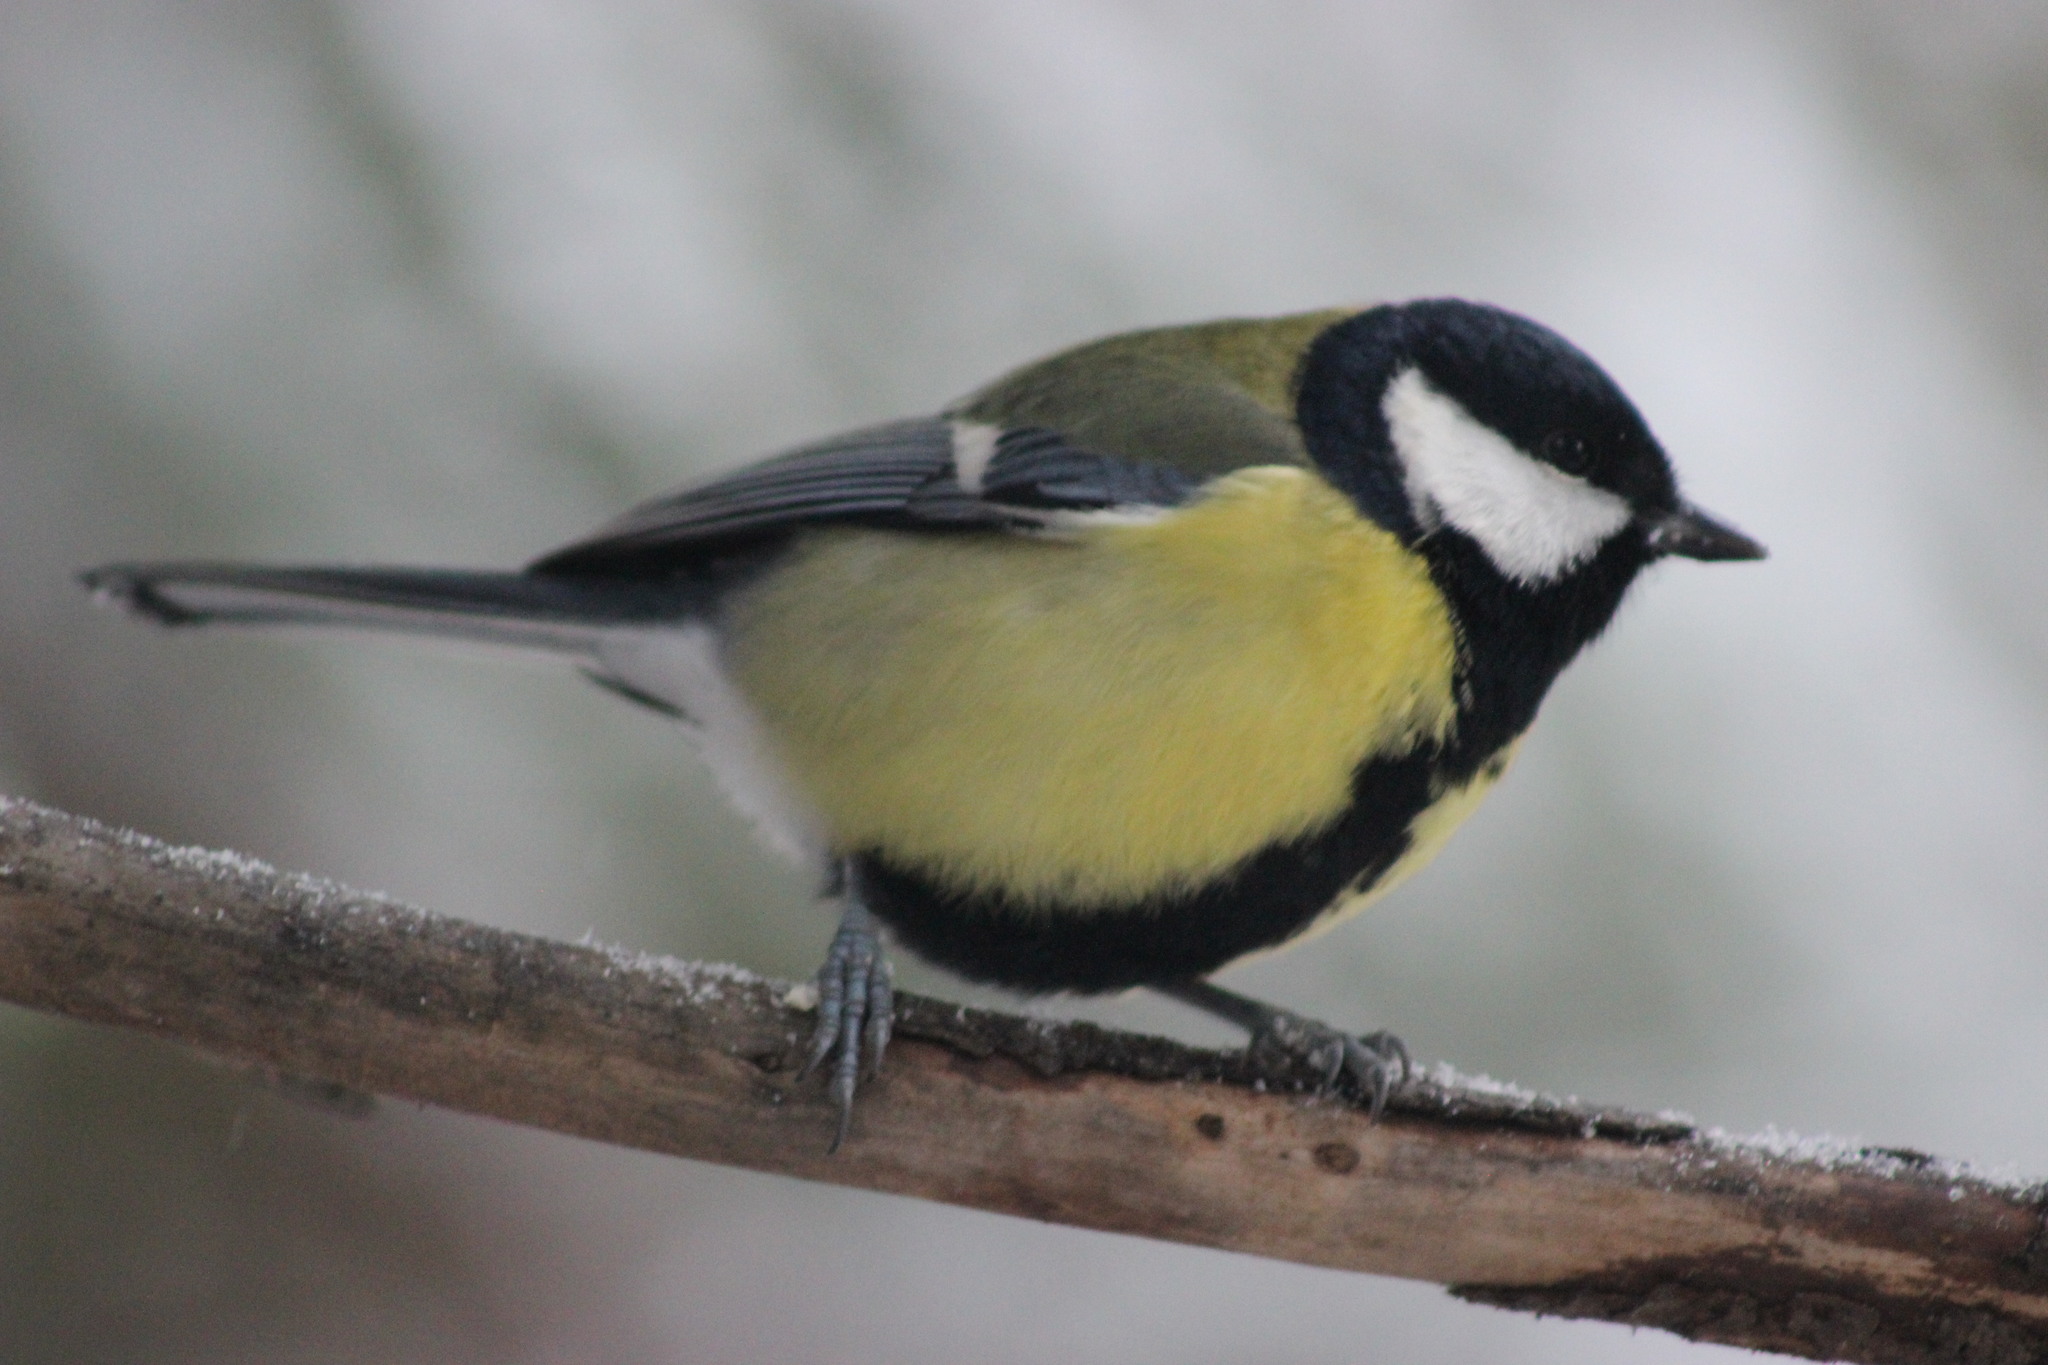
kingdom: Animalia
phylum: Chordata
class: Aves
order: Passeriformes
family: Paridae
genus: Parus
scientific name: Parus major
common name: Great tit
